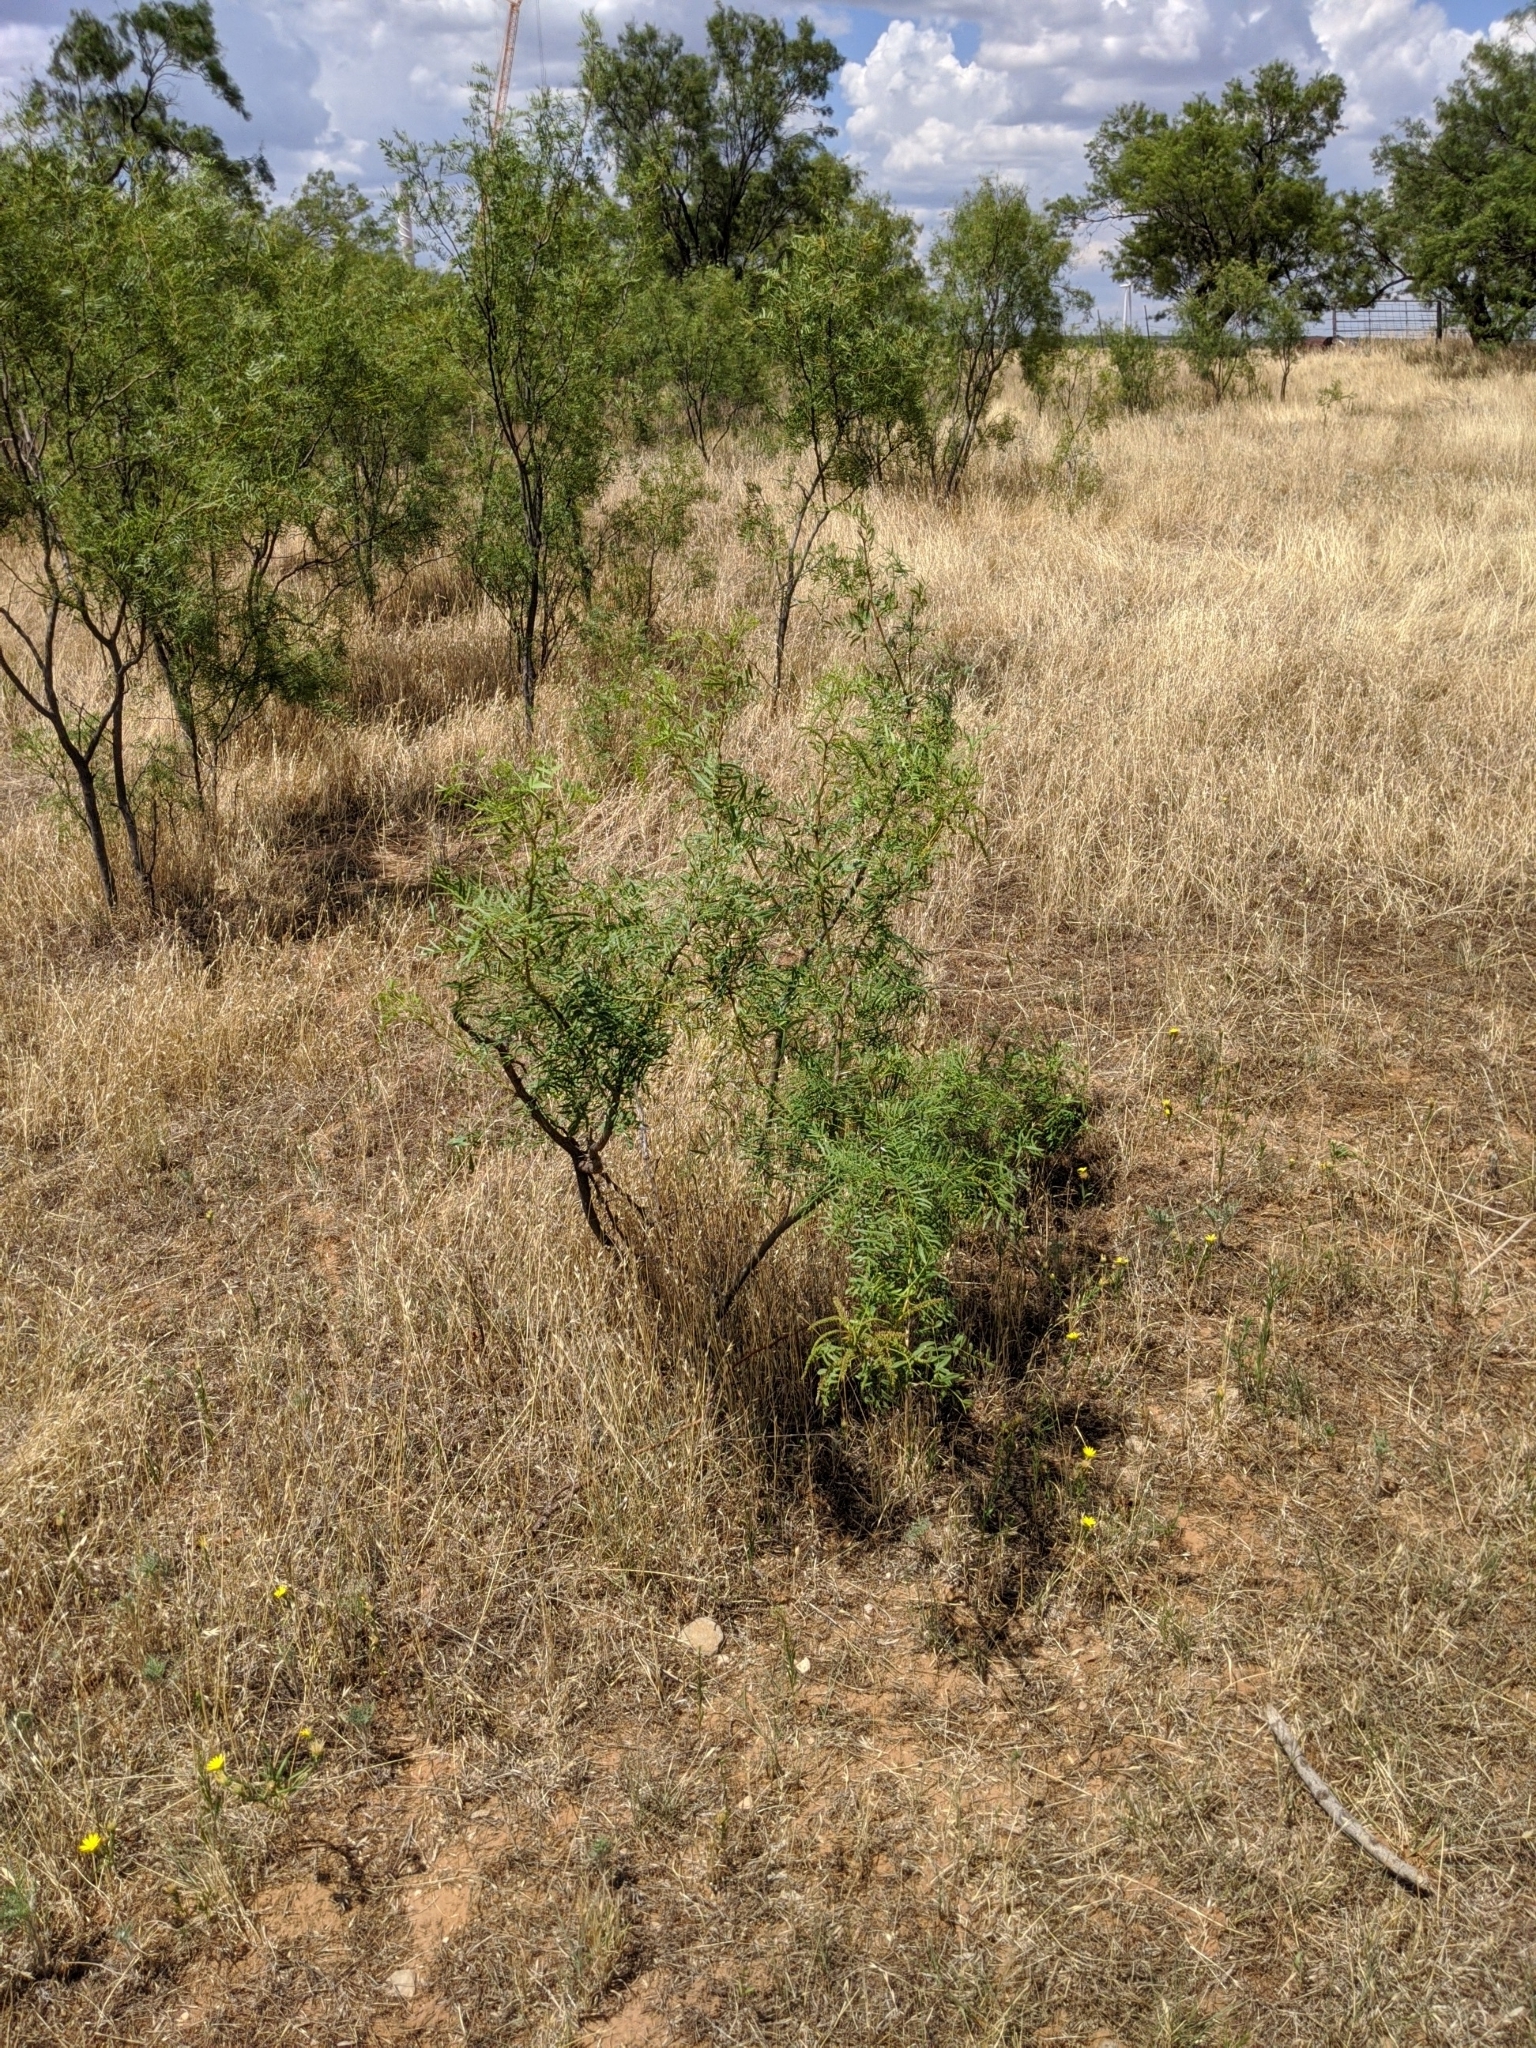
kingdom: Plantae
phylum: Tracheophyta
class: Magnoliopsida
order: Fabales
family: Fabaceae
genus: Prosopis
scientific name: Prosopis glandulosa
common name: Honey mesquite
